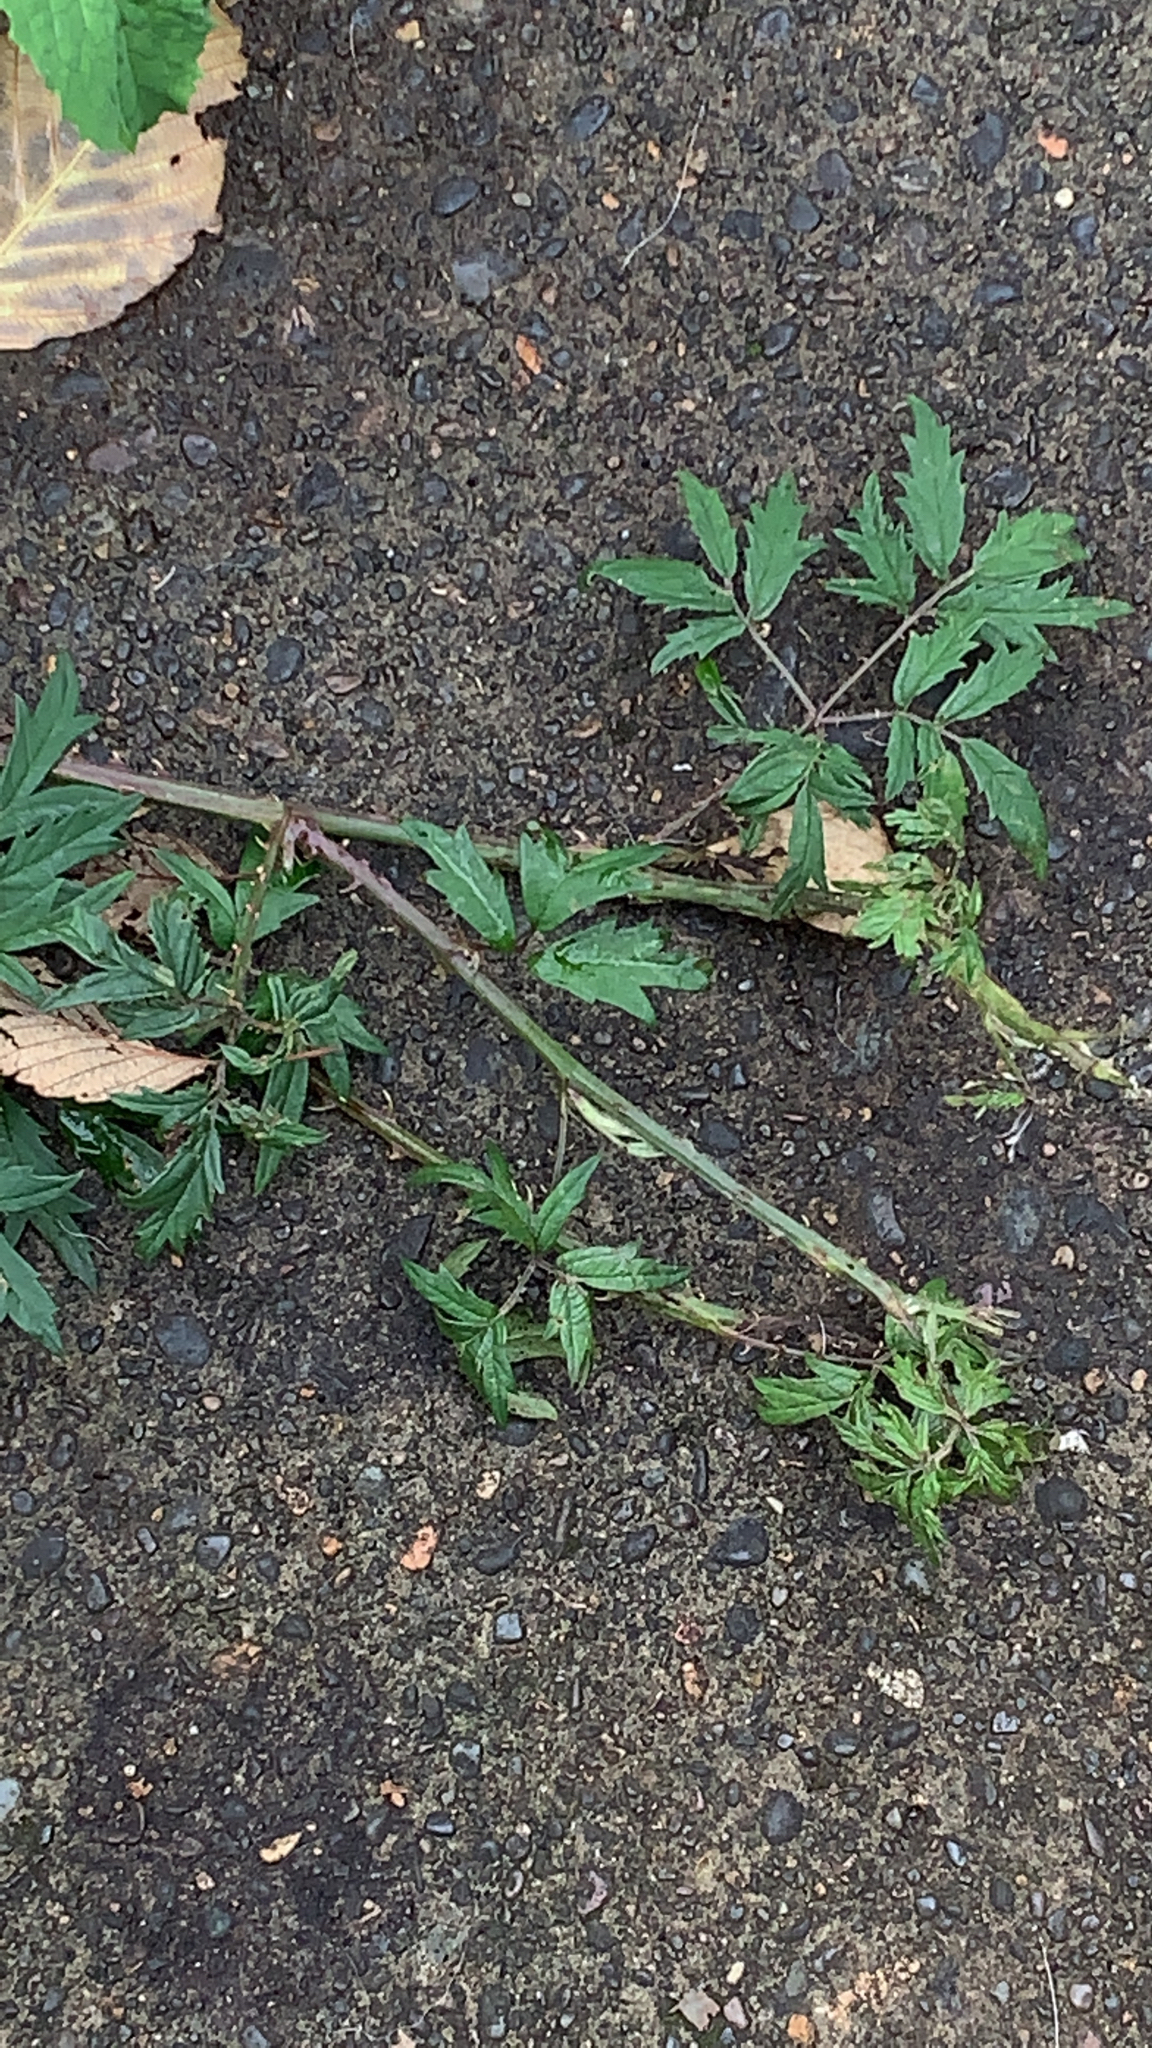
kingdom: Plantae
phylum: Tracheophyta
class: Magnoliopsida
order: Rosales
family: Rosaceae
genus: Rubus
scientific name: Rubus laciniatus
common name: Evergreen blackberry
